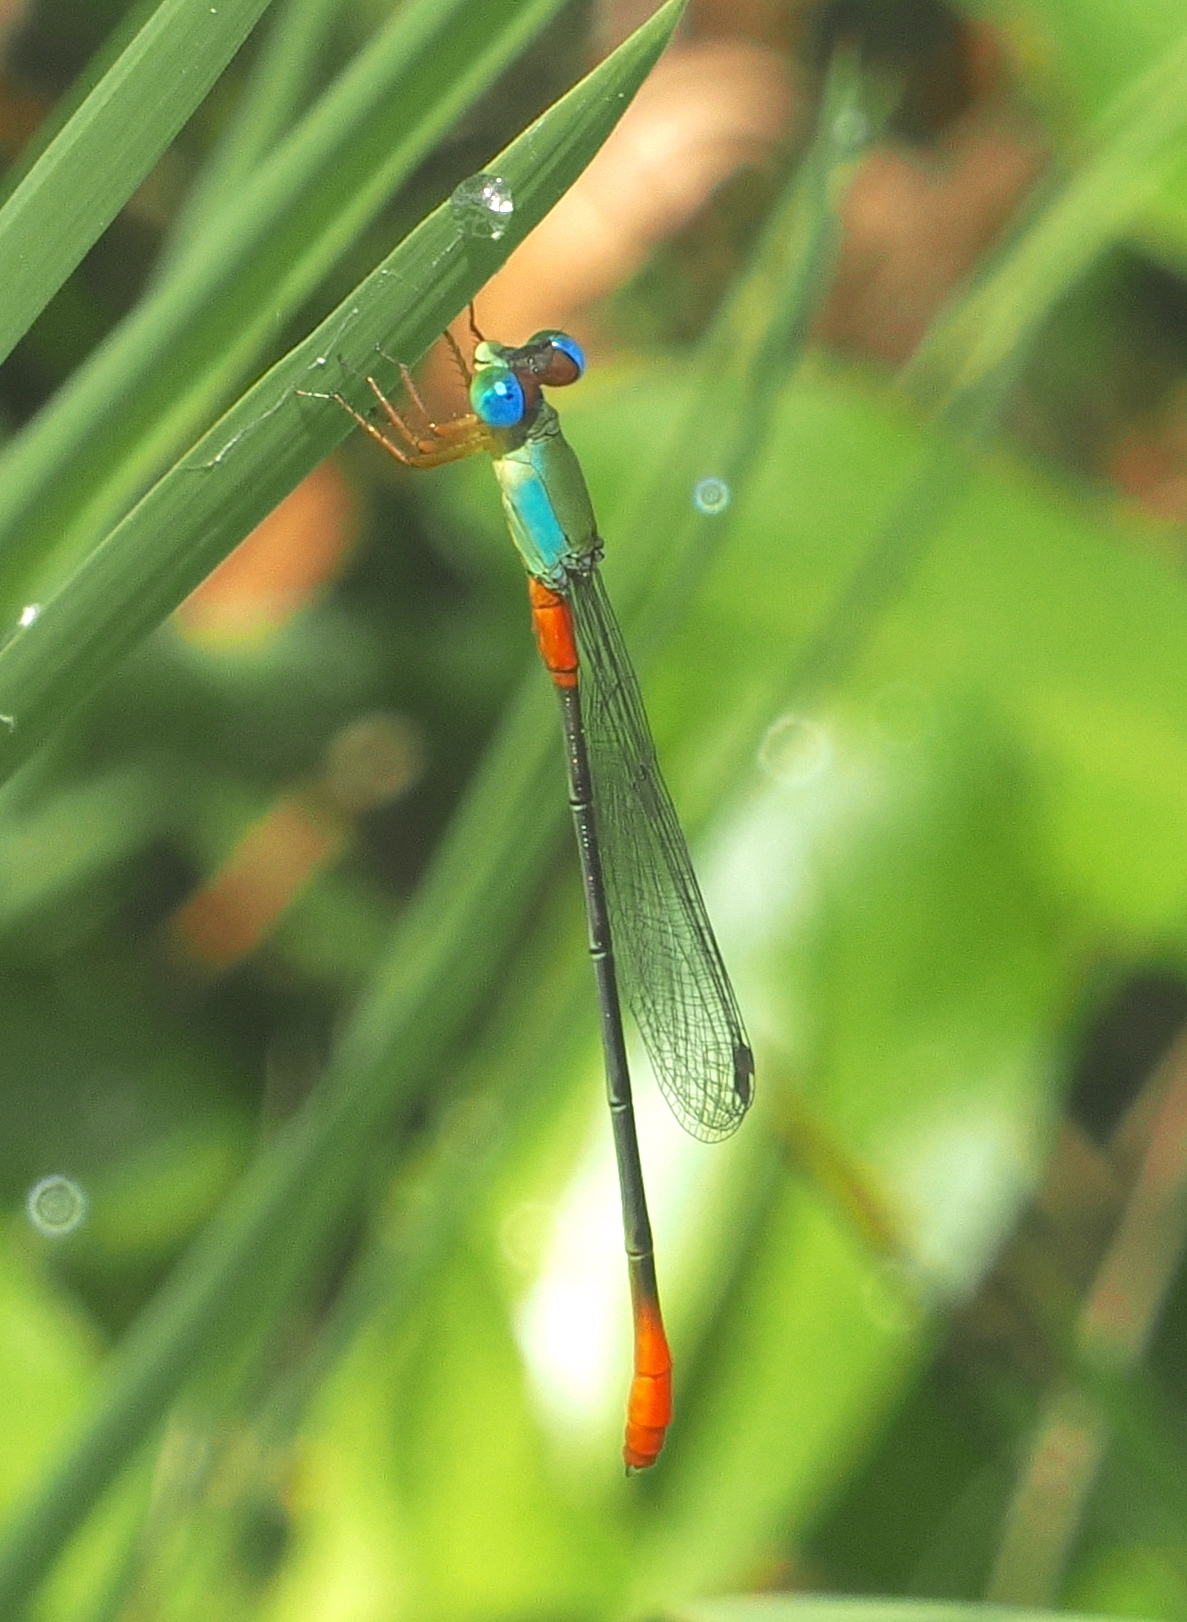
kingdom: Animalia
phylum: Arthropoda
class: Insecta
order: Odonata
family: Coenagrionidae
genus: Ceriagrion
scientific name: Ceriagrion cerinorubellum
